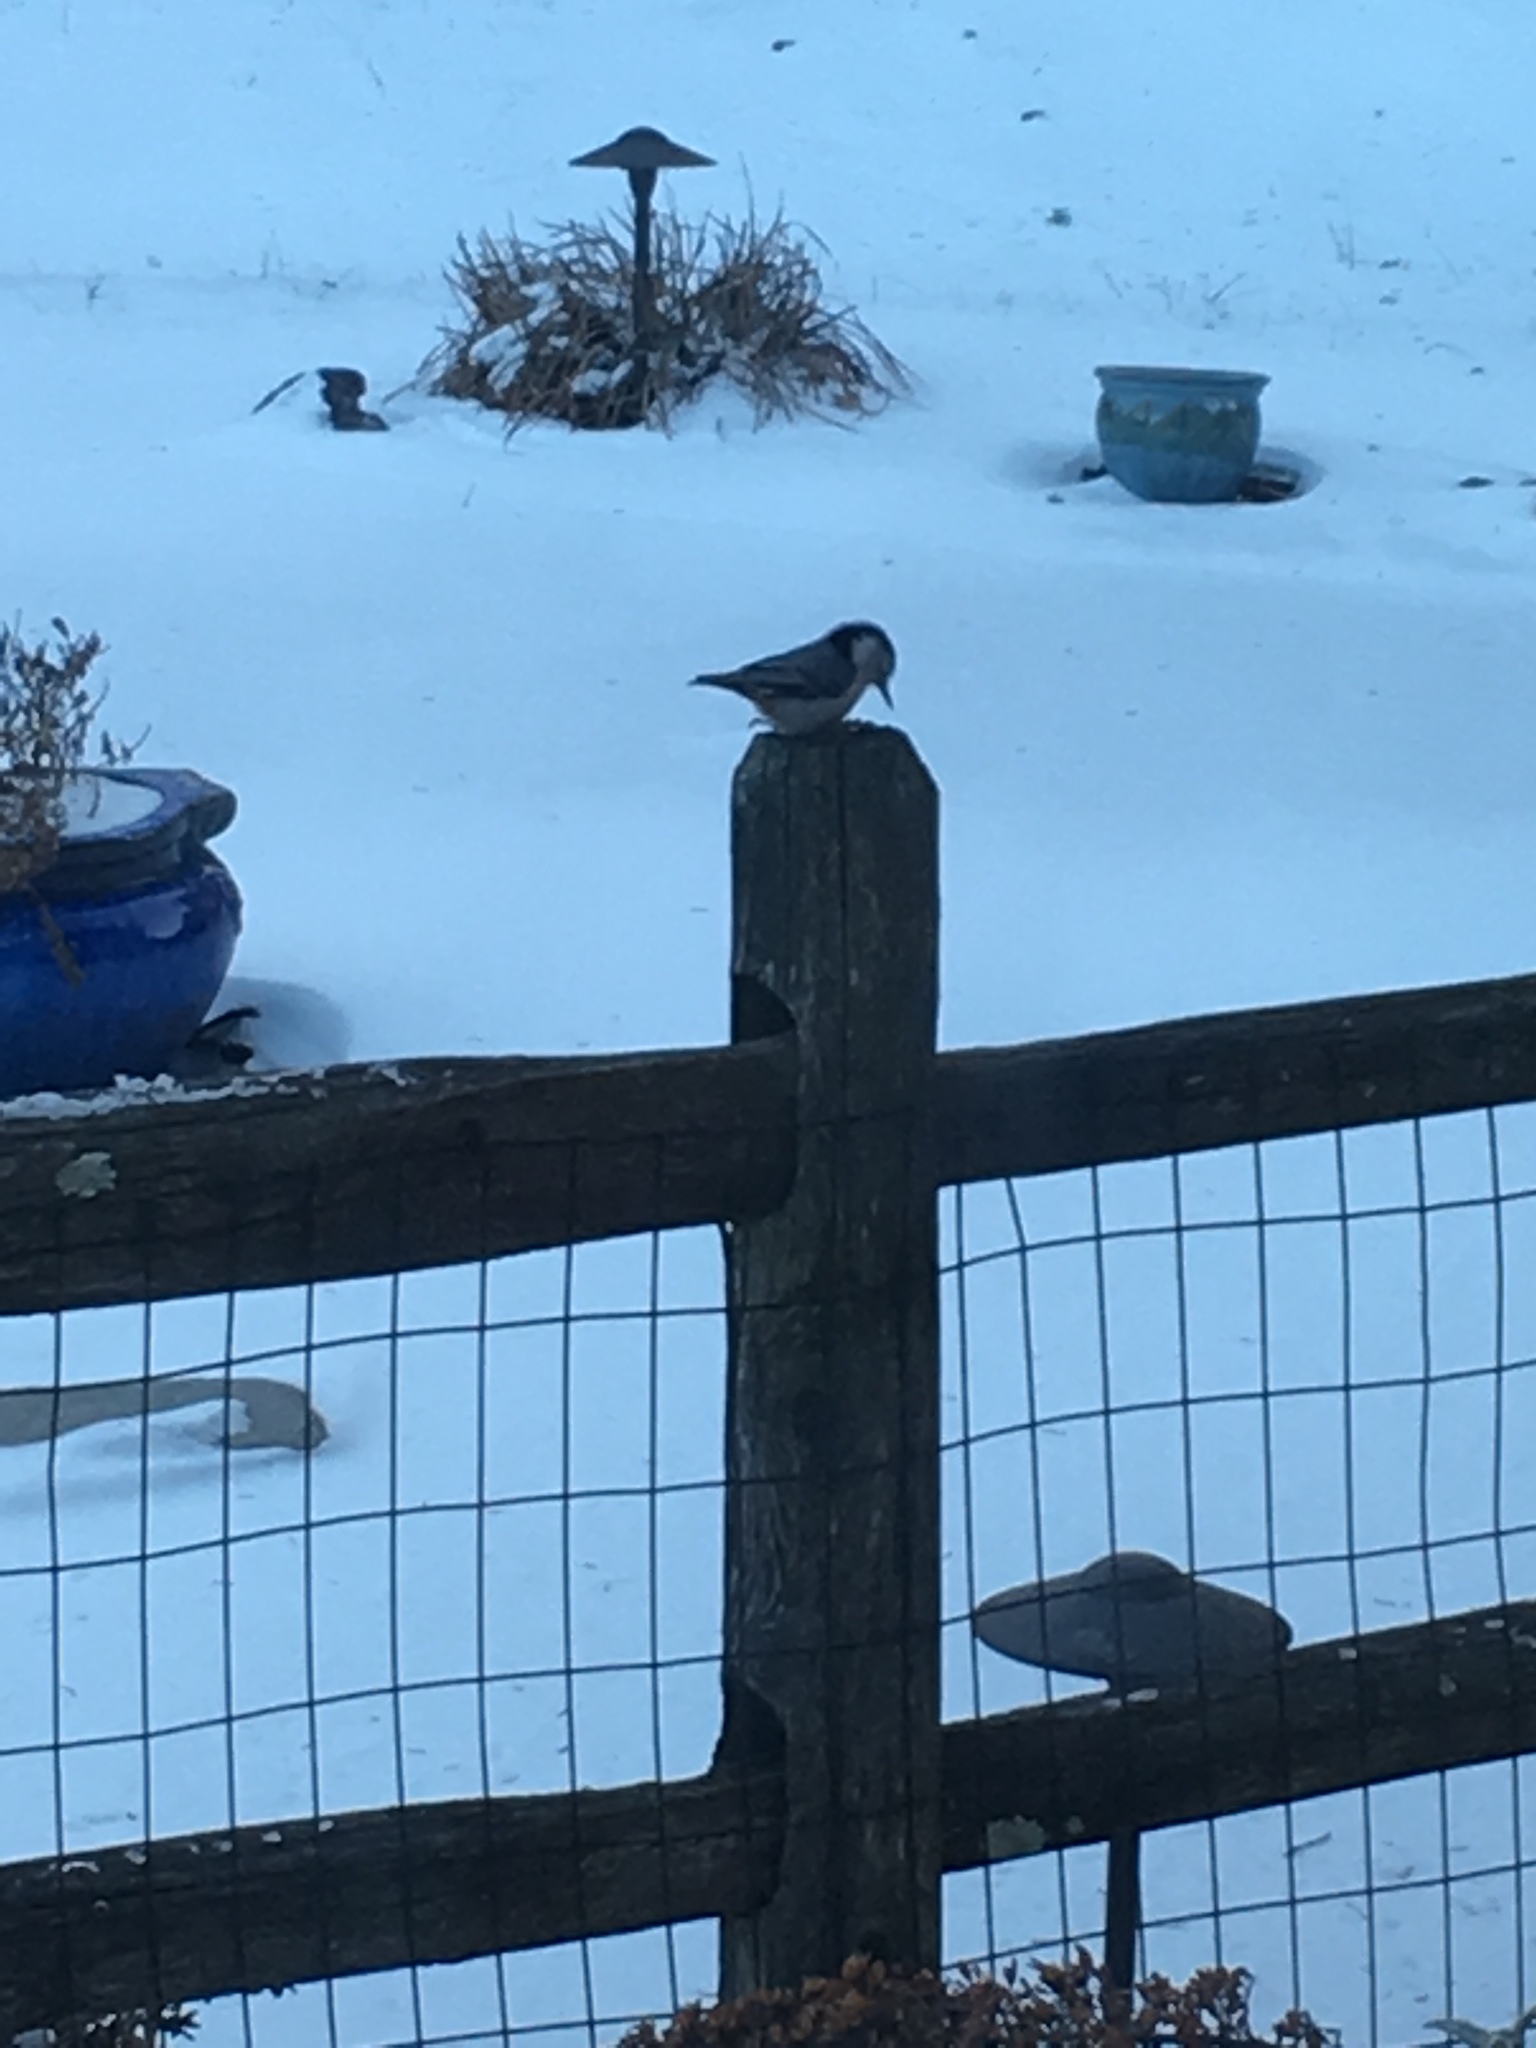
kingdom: Animalia
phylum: Chordata
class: Aves
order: Passeriformes
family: Sittidae
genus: Sitta
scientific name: Sitta carolinensis
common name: White-breasted nuthatch
